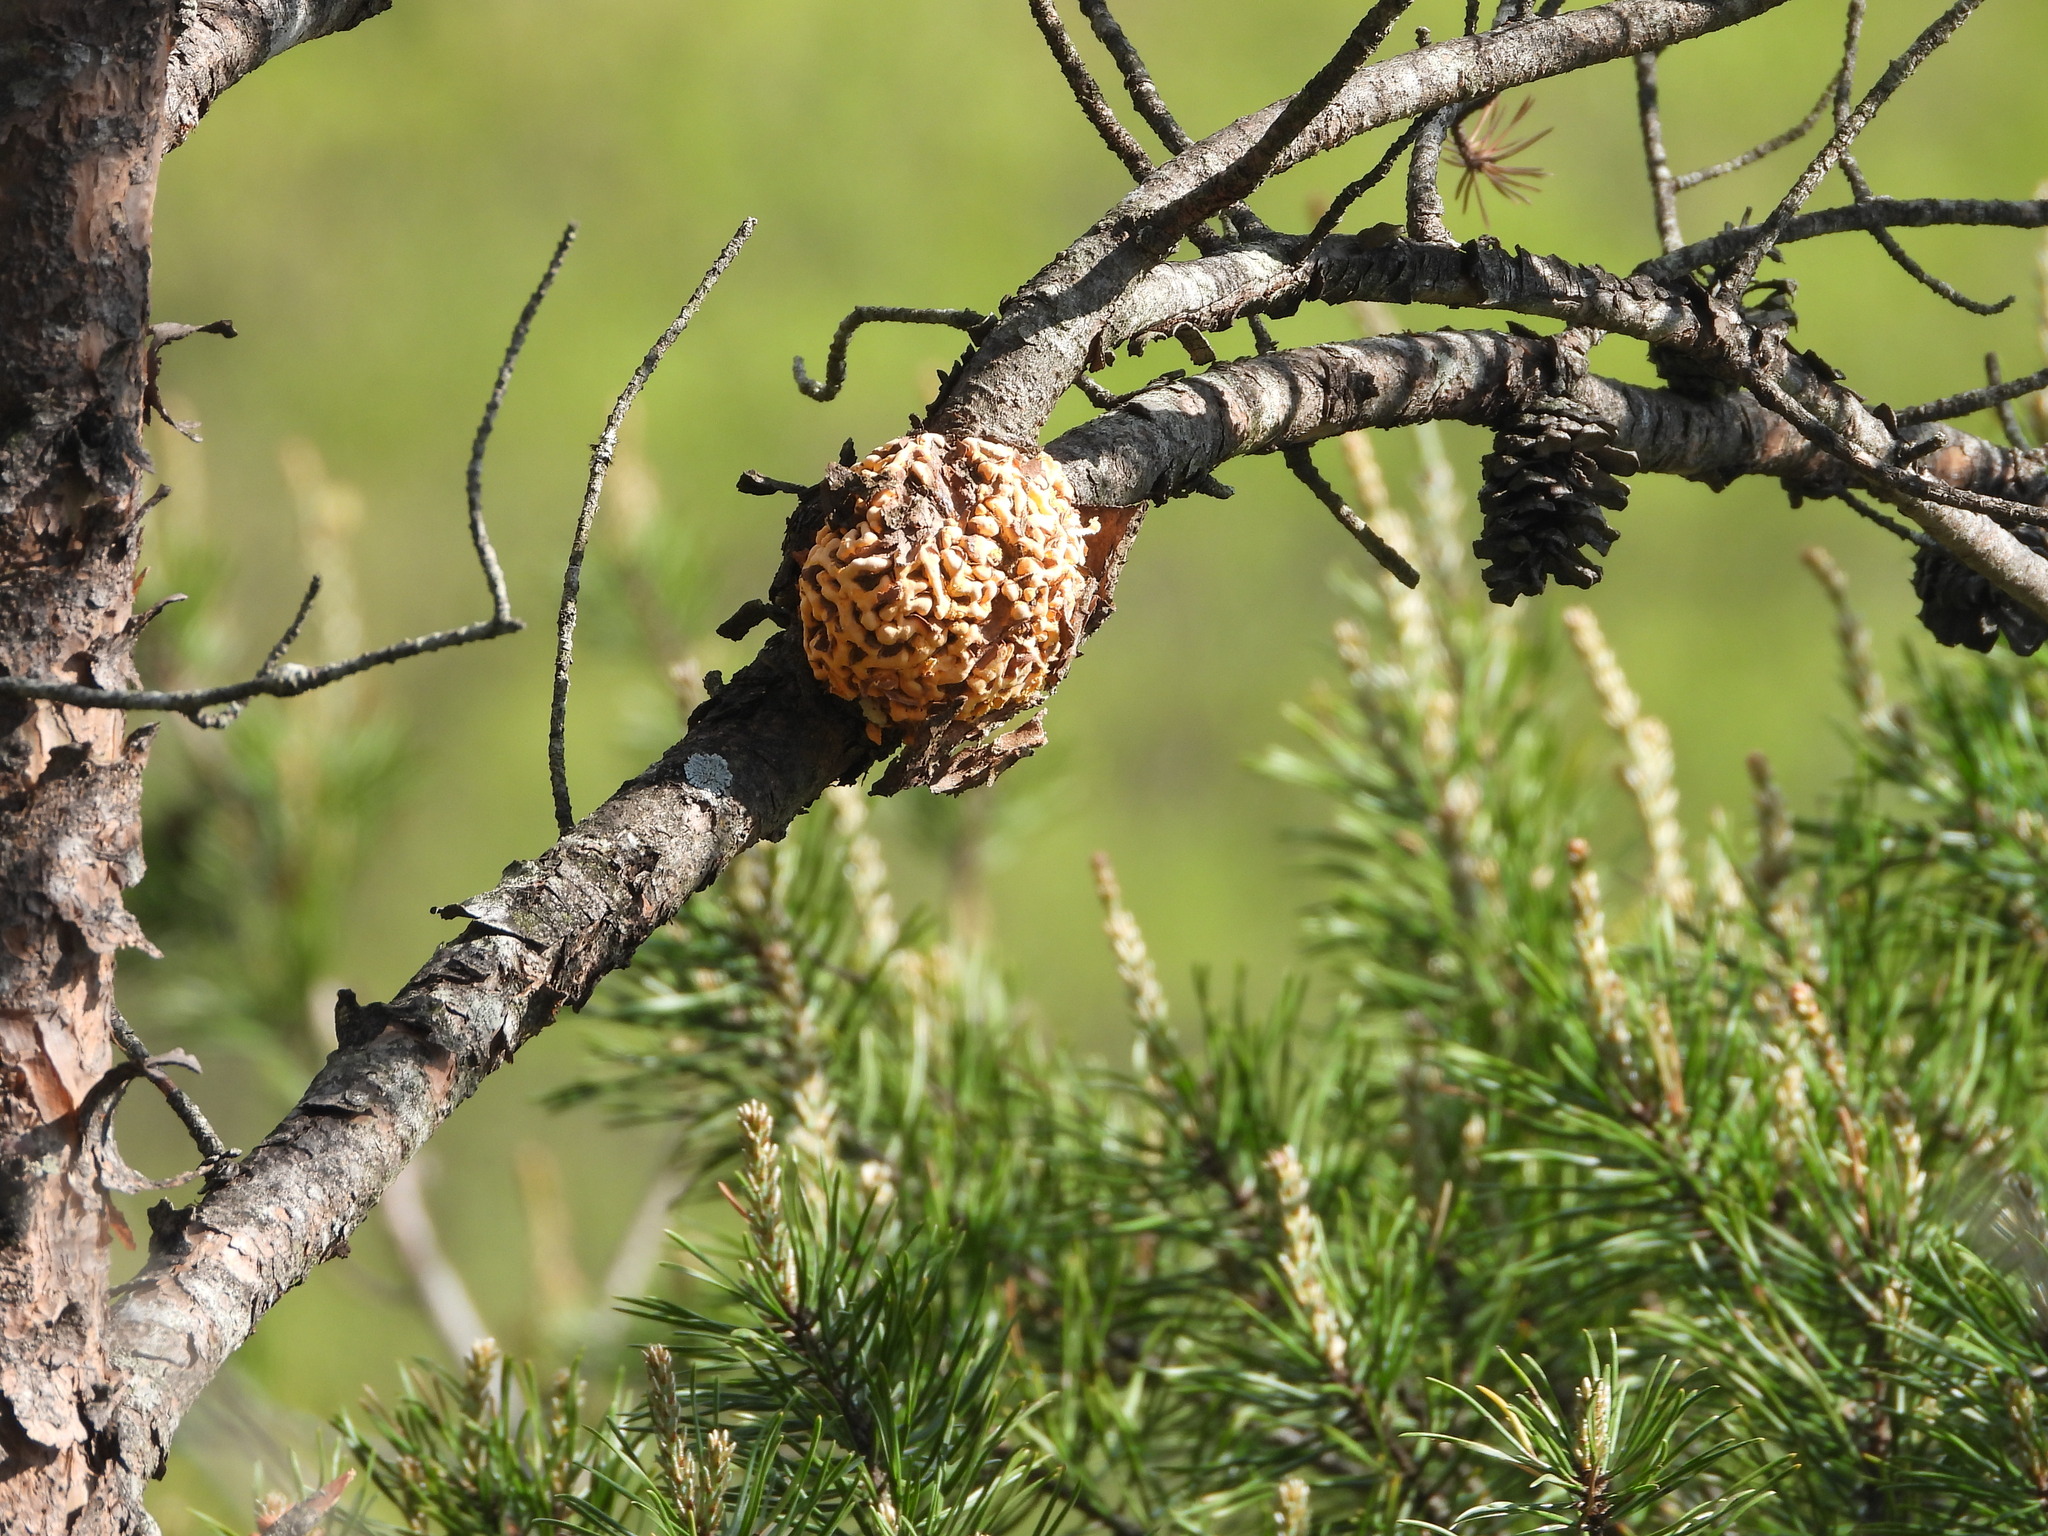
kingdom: Fungi
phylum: Basidiomycota
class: Pucciniomycetes
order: Pucciniales
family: Cronartiaceae
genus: Cronartium
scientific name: Cronartium quercuum
